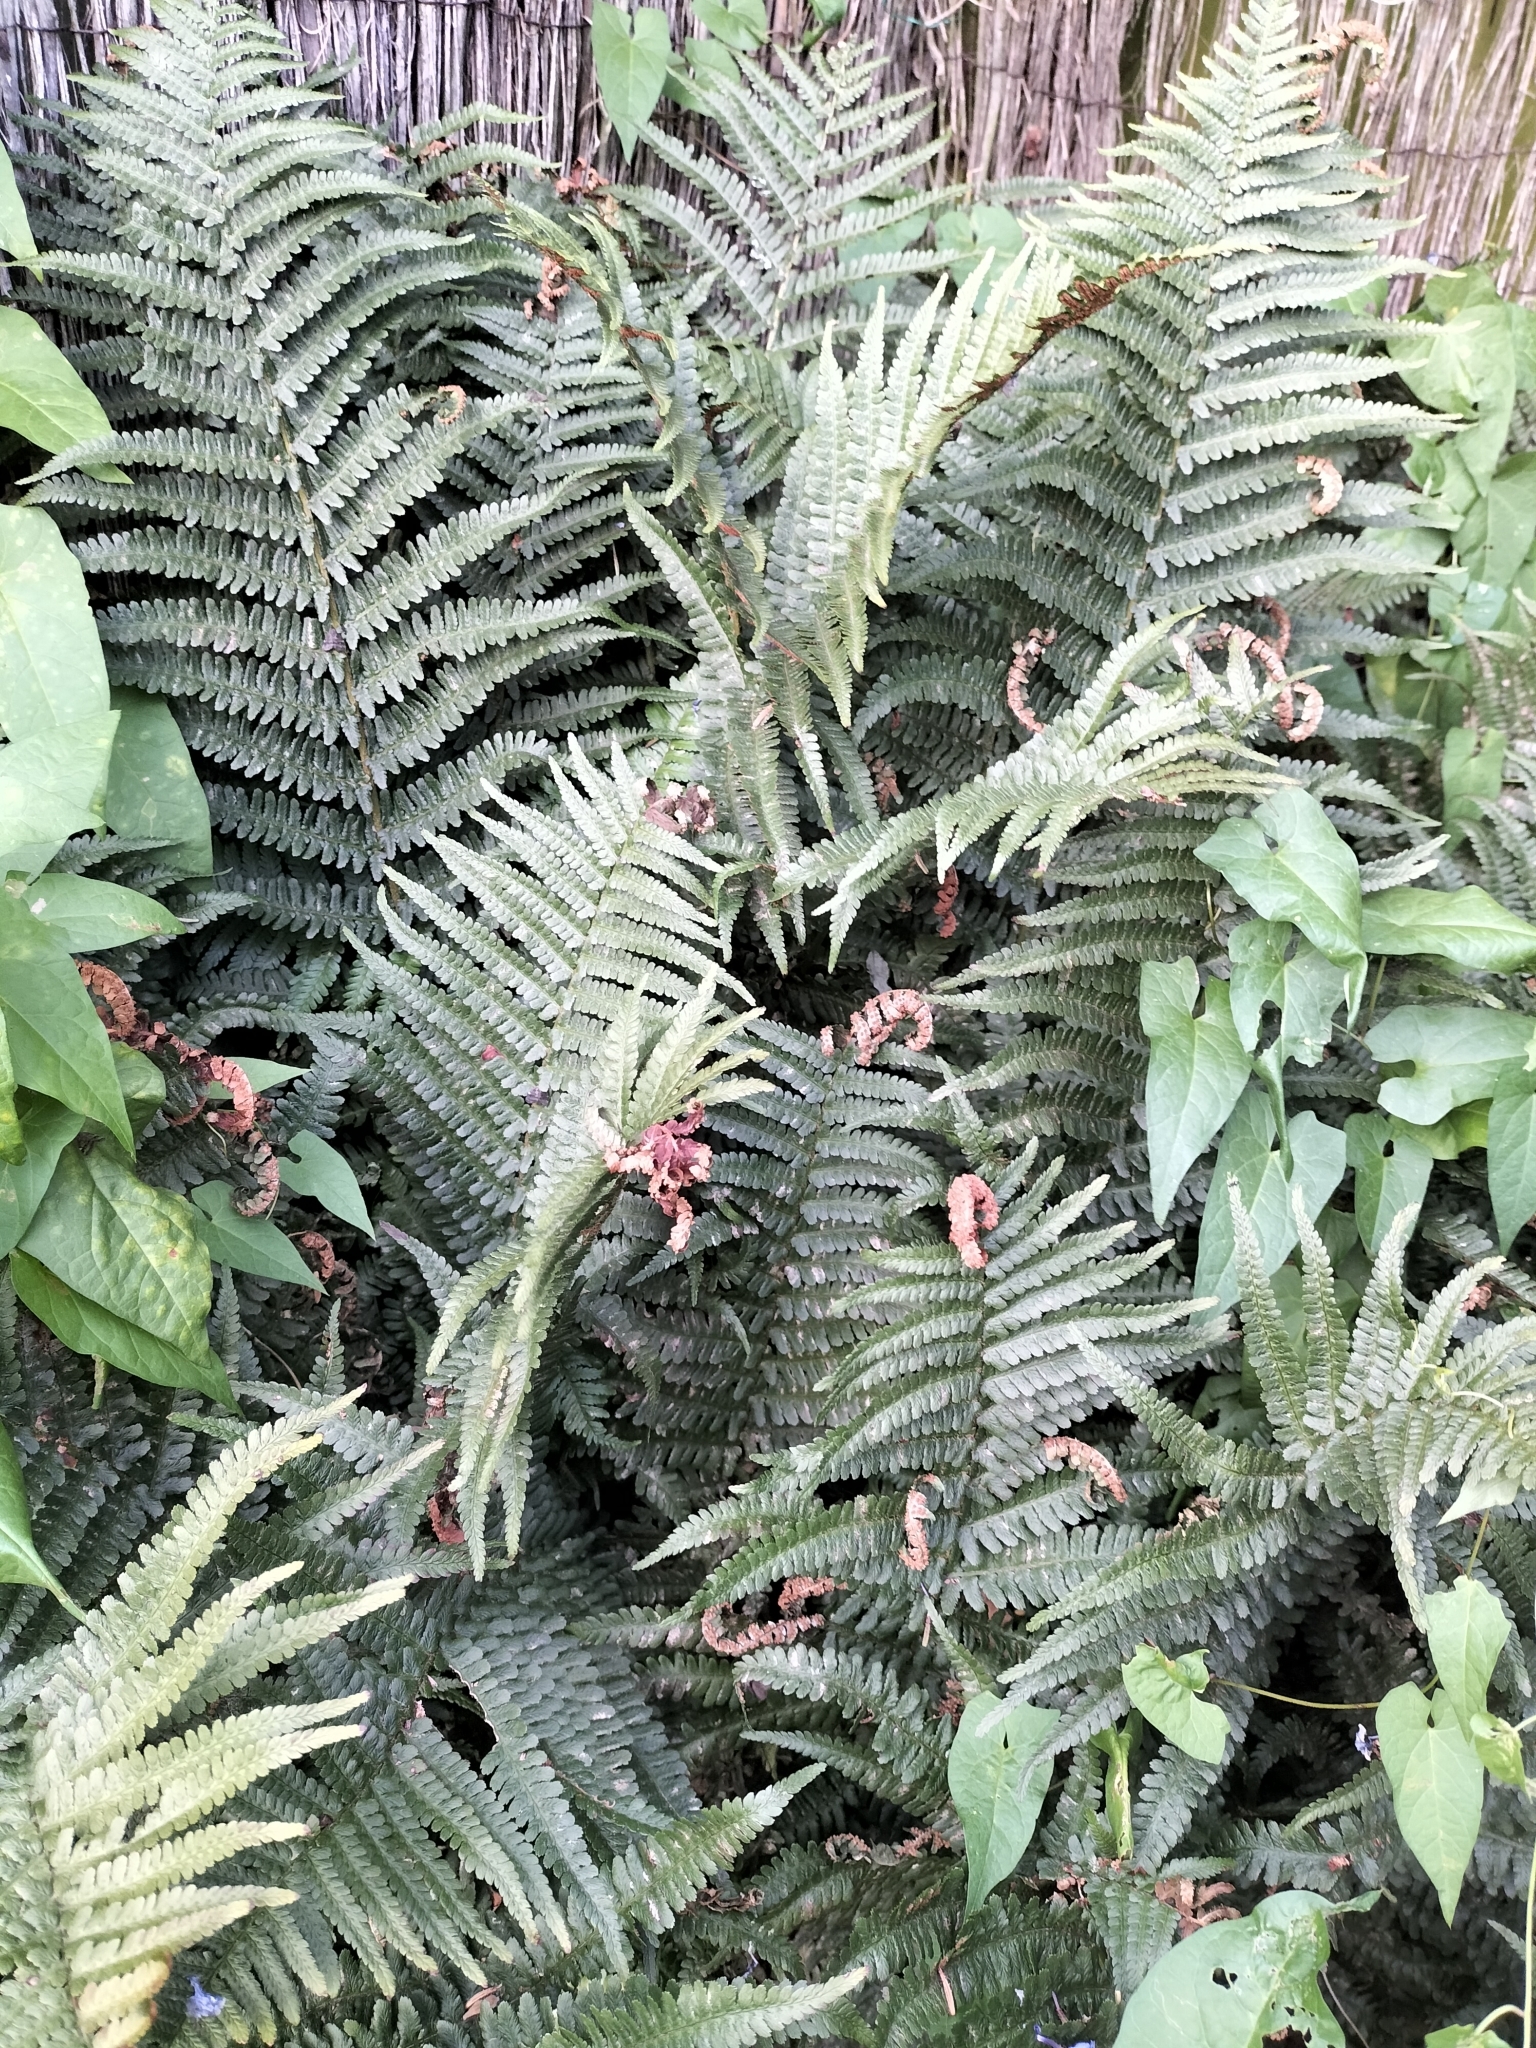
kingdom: Plantae
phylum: Tracheophyta
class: Polypodiopsida
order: Polypodiales
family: Dryopteridaceae
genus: Dryopteris
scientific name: Dryopteris filix-mas
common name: Male fern
